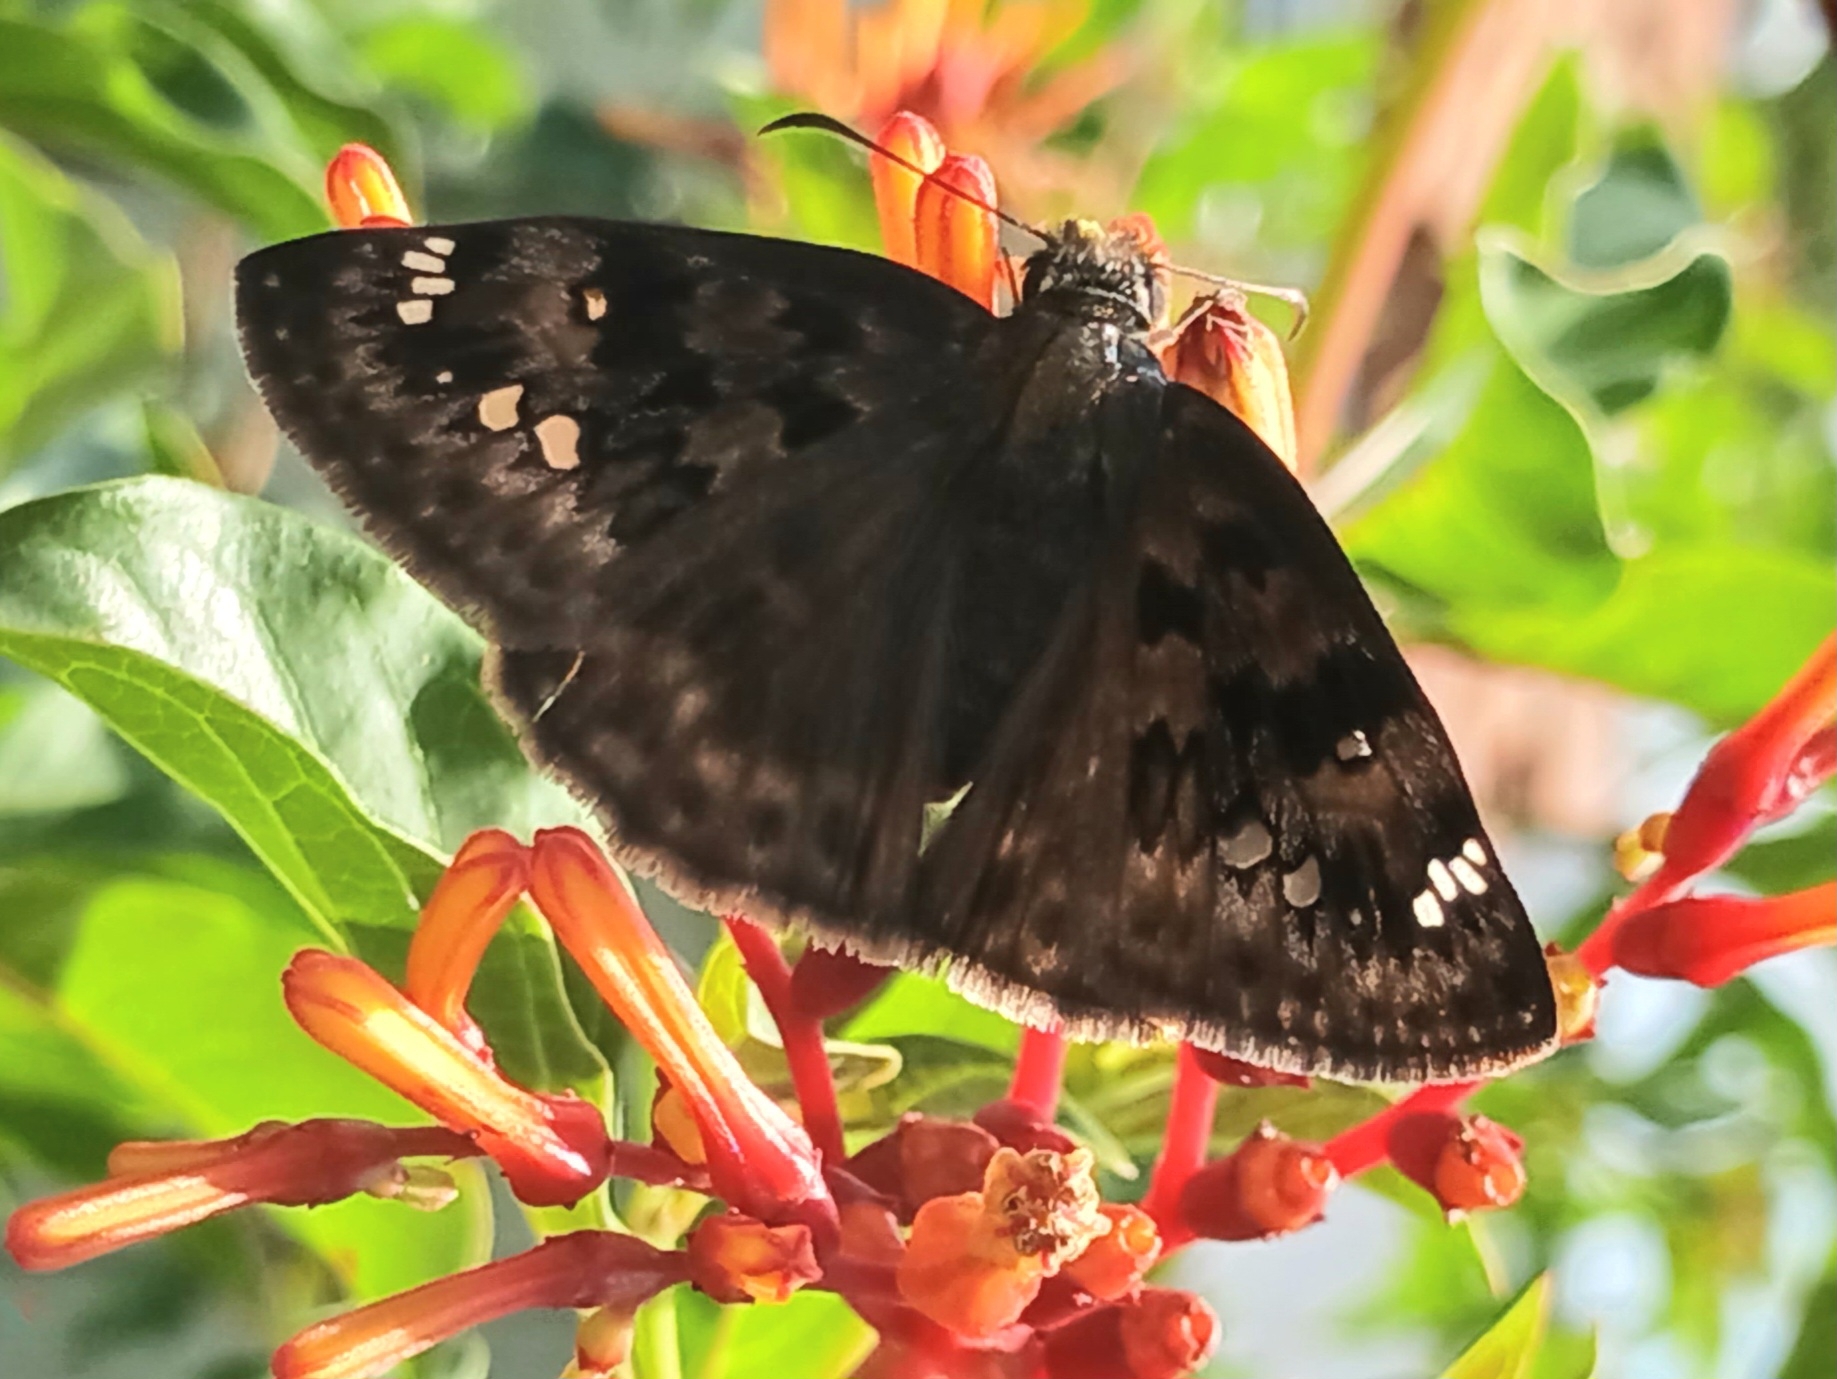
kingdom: Animalia
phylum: Arthropoda
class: Insecta
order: Lepidoptera
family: Hesperiidae
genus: Erynnis
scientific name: Erynnis horatius
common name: Horace's duskywing
